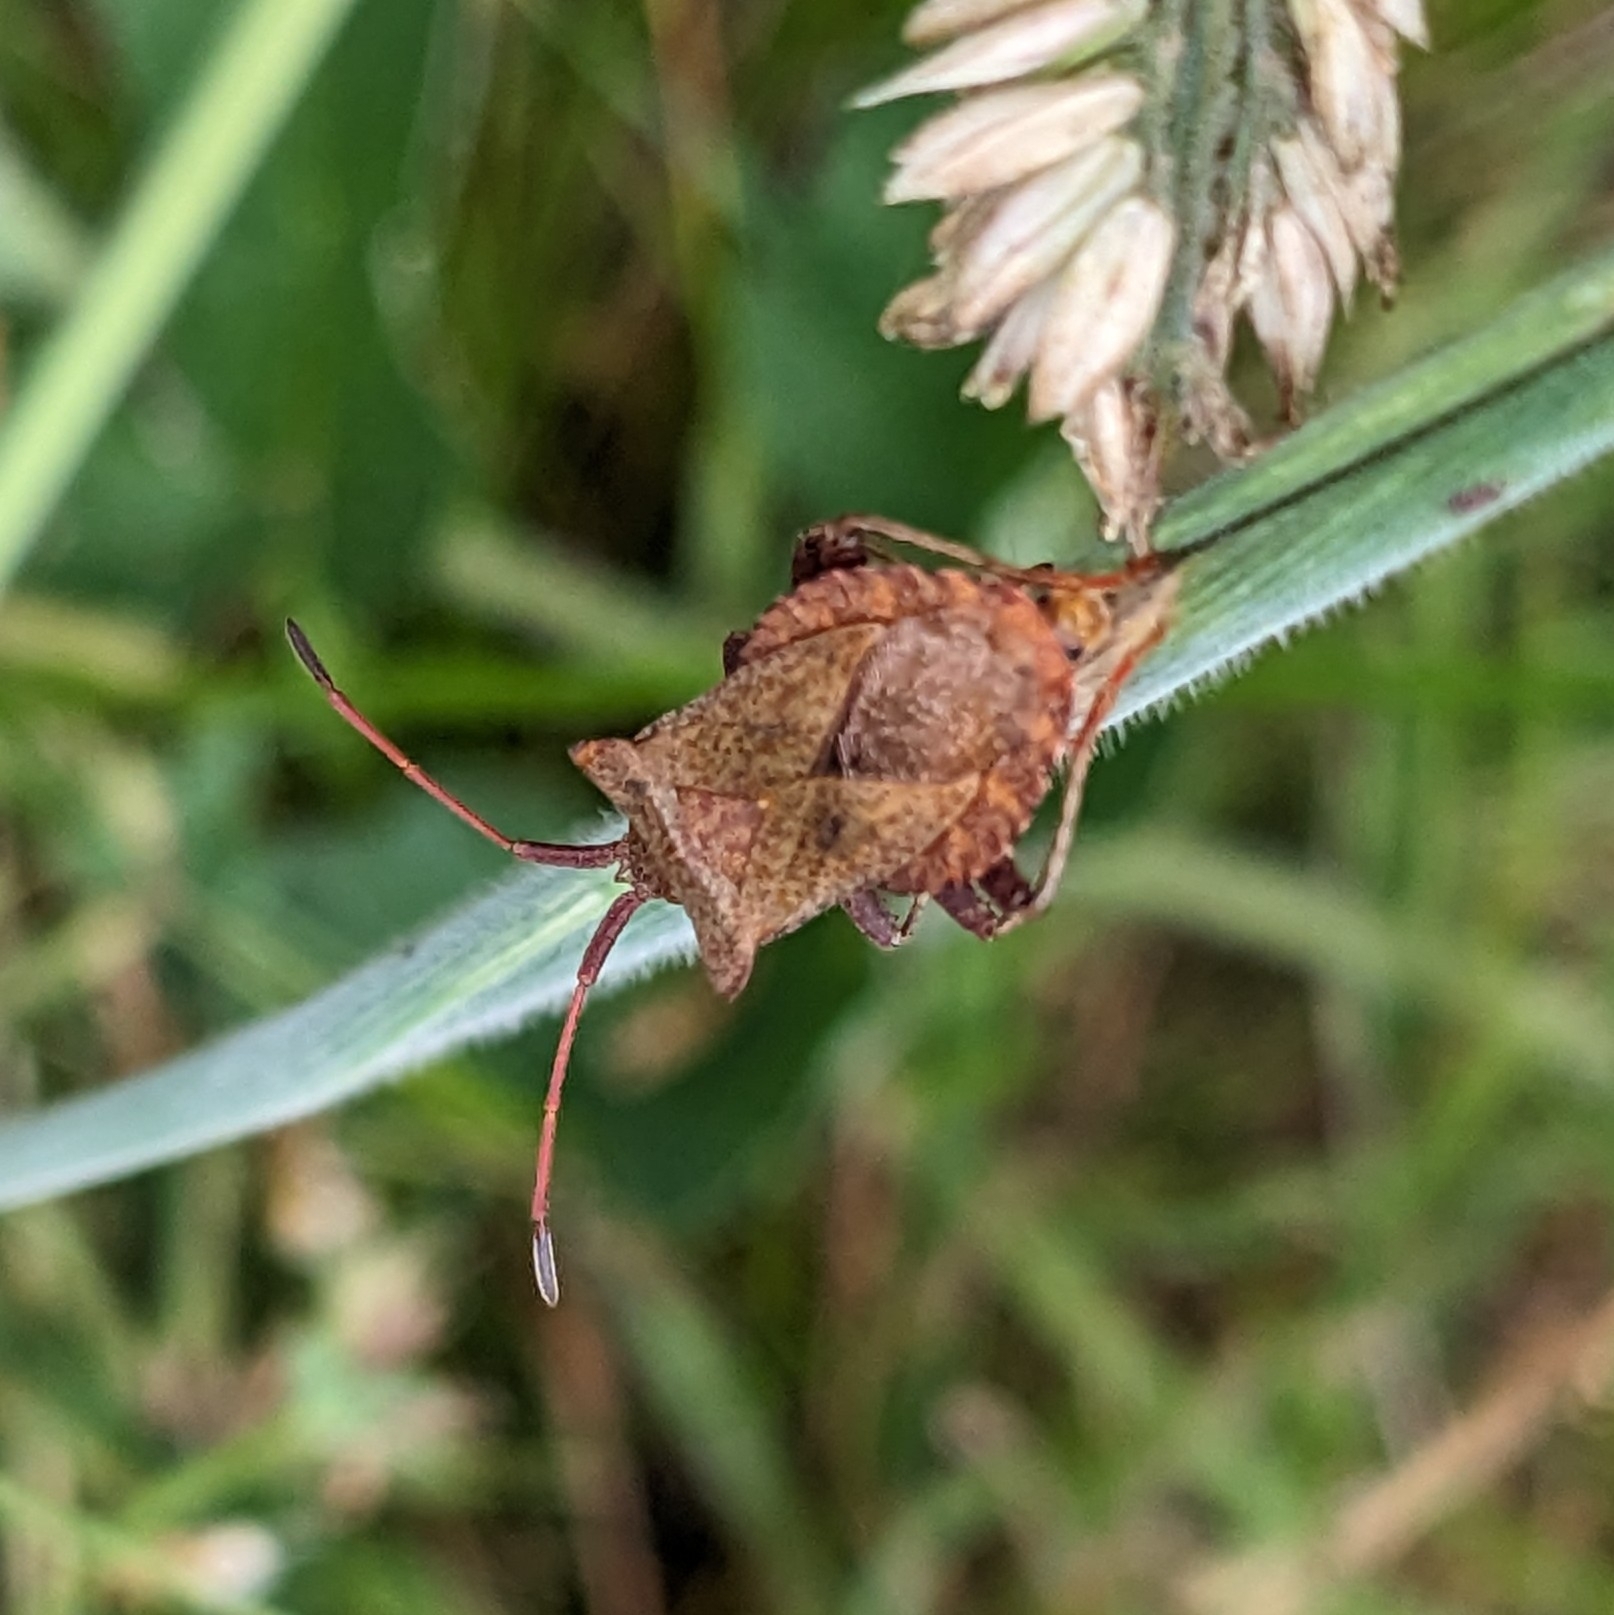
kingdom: Animalia
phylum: Arthropoda
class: Insecta
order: Hemiptera
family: Coreidae
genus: Coreus
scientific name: Coreus marginatus
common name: Dock bug
